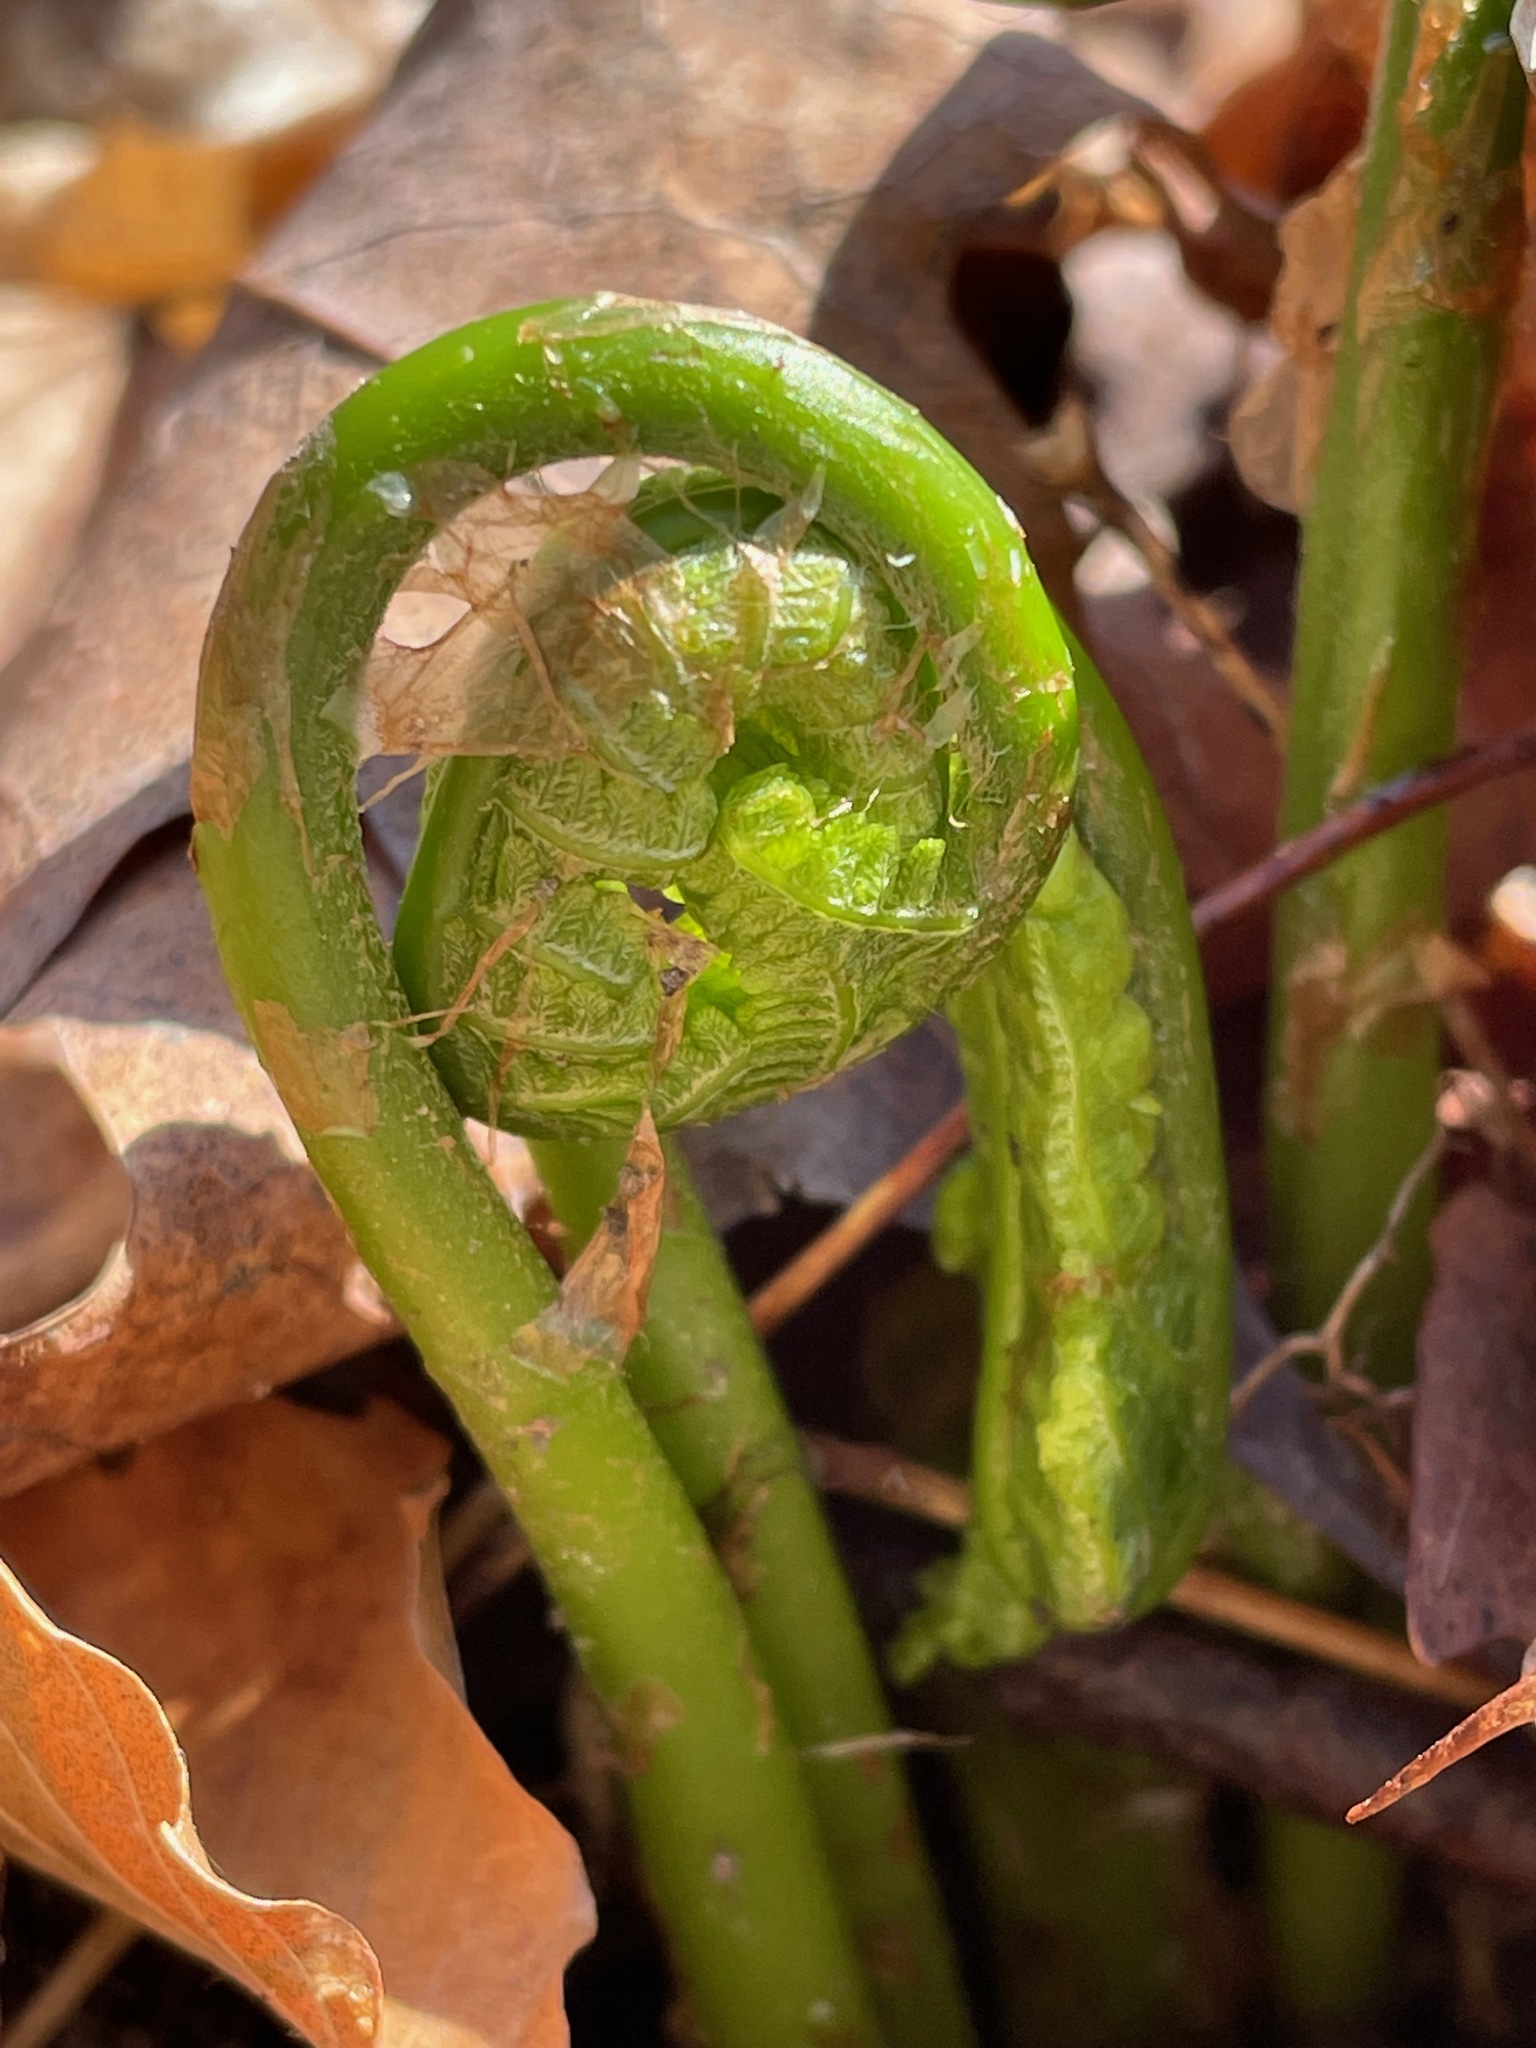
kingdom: Plantae
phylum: Tracheophyta
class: Polypodiopsida
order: Polypodiales
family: Onocleaceae
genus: Matteuccia
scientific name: Matteuccia struthiopteris
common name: Ostrich fern
